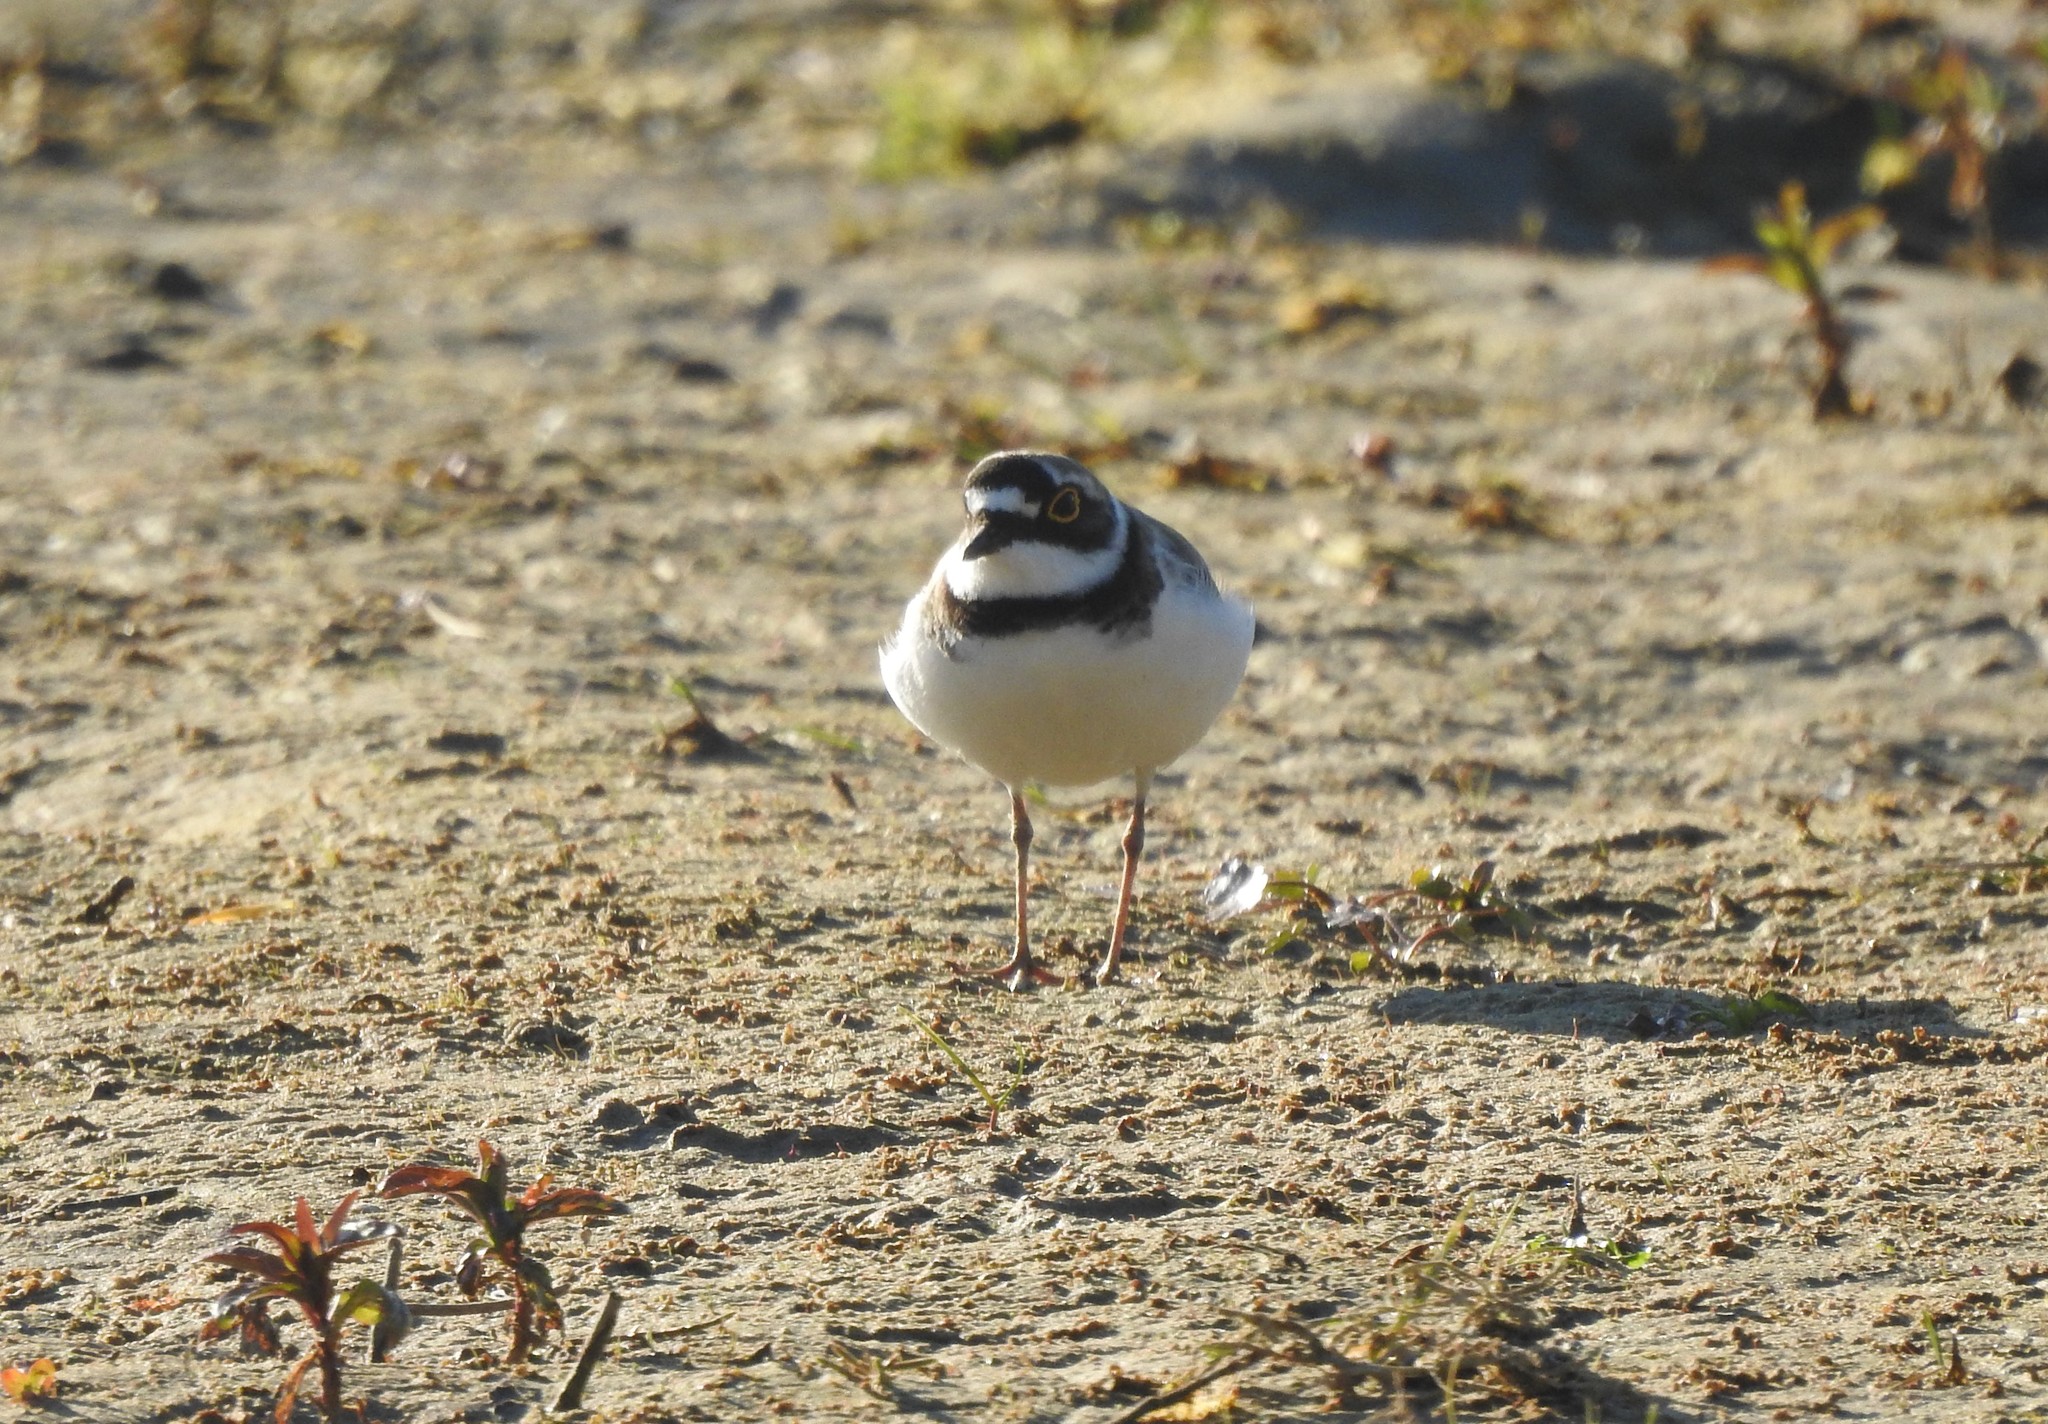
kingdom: Animalia
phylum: Chordata
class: Aves
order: Charadriiformes
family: Charadriidae
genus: Charadrius
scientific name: Charadrius dubius
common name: Little ringed plover
